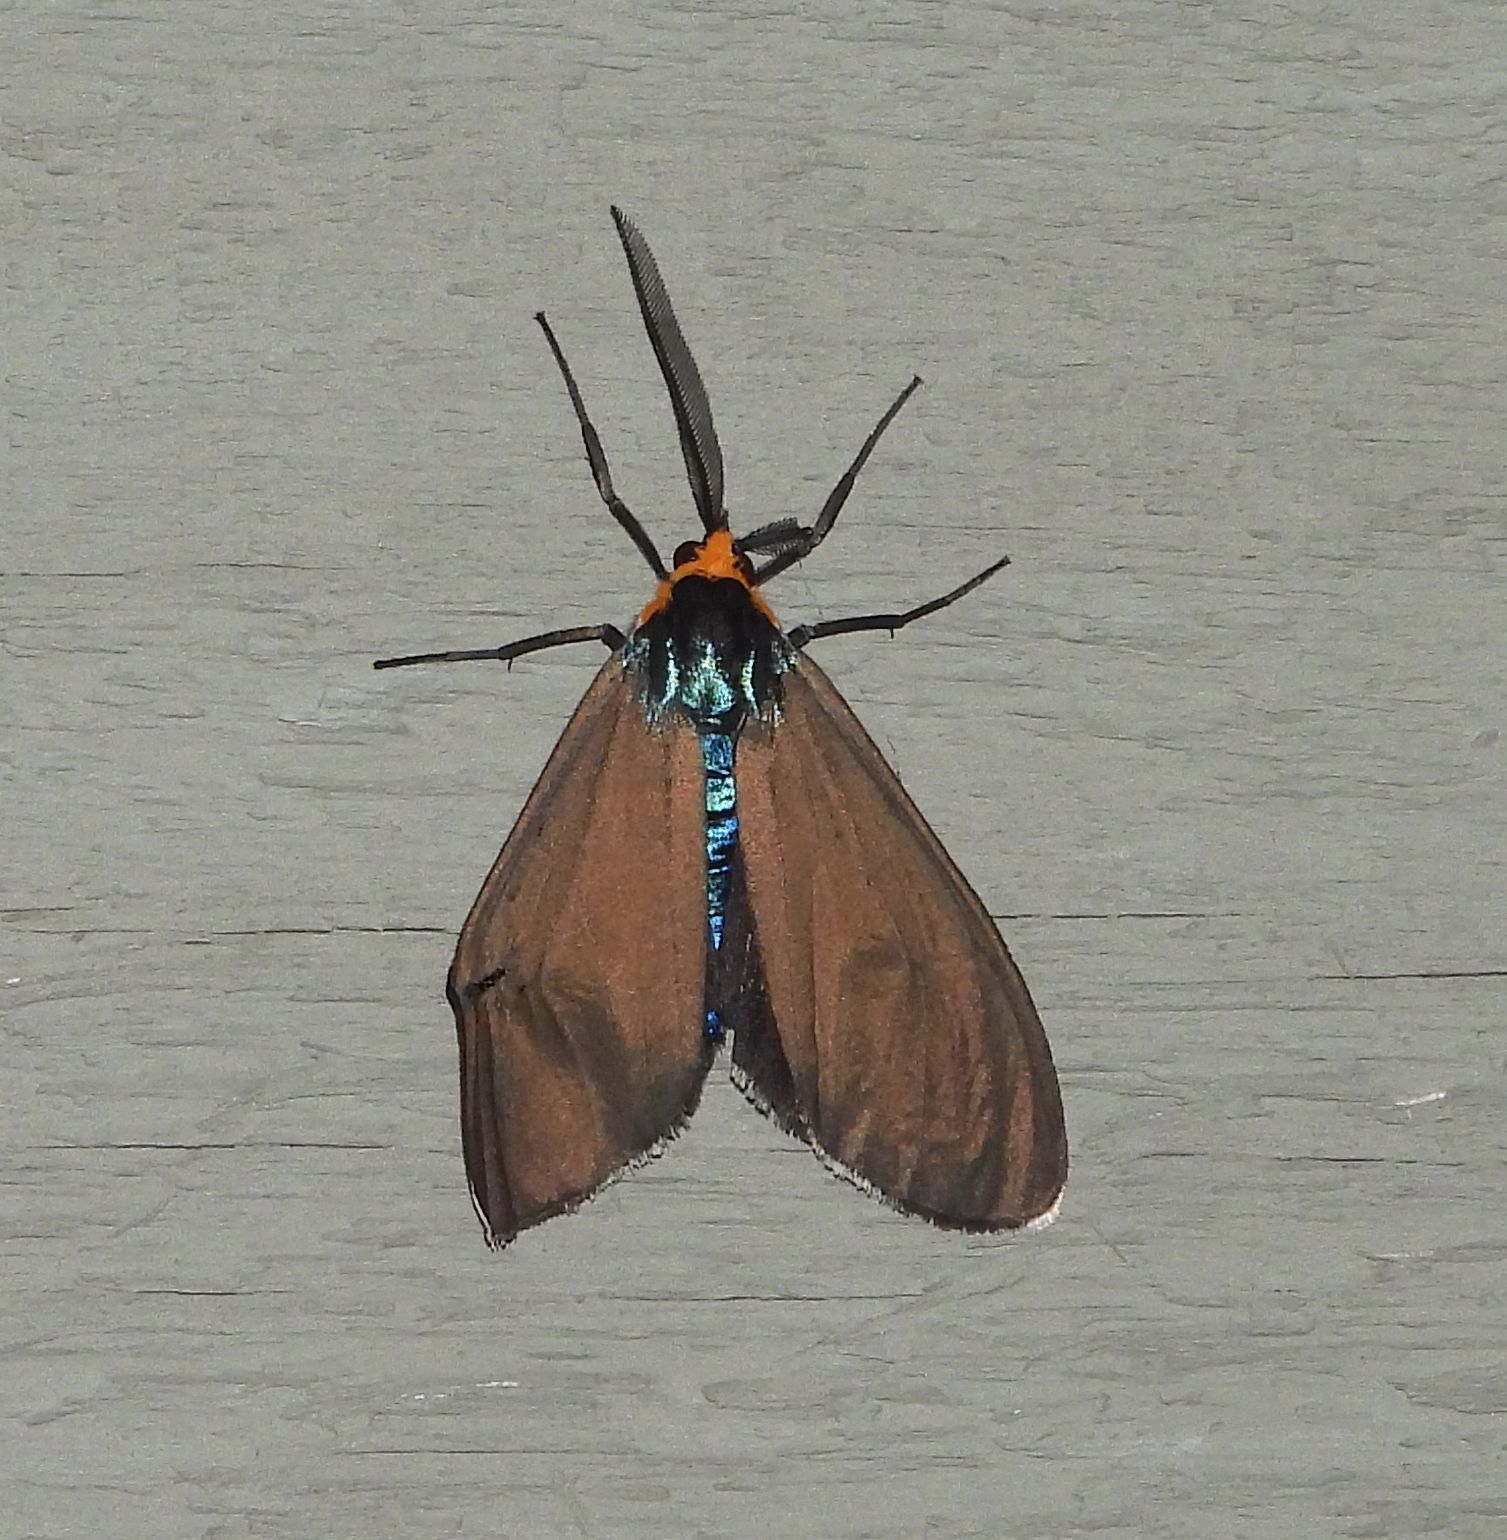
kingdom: Animalia
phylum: Arthropoda
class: Insecta
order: Lepidoptera
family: Erebidae
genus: Ctenucha
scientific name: Ctenucha virginica
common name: Virginia ctenucha moth
